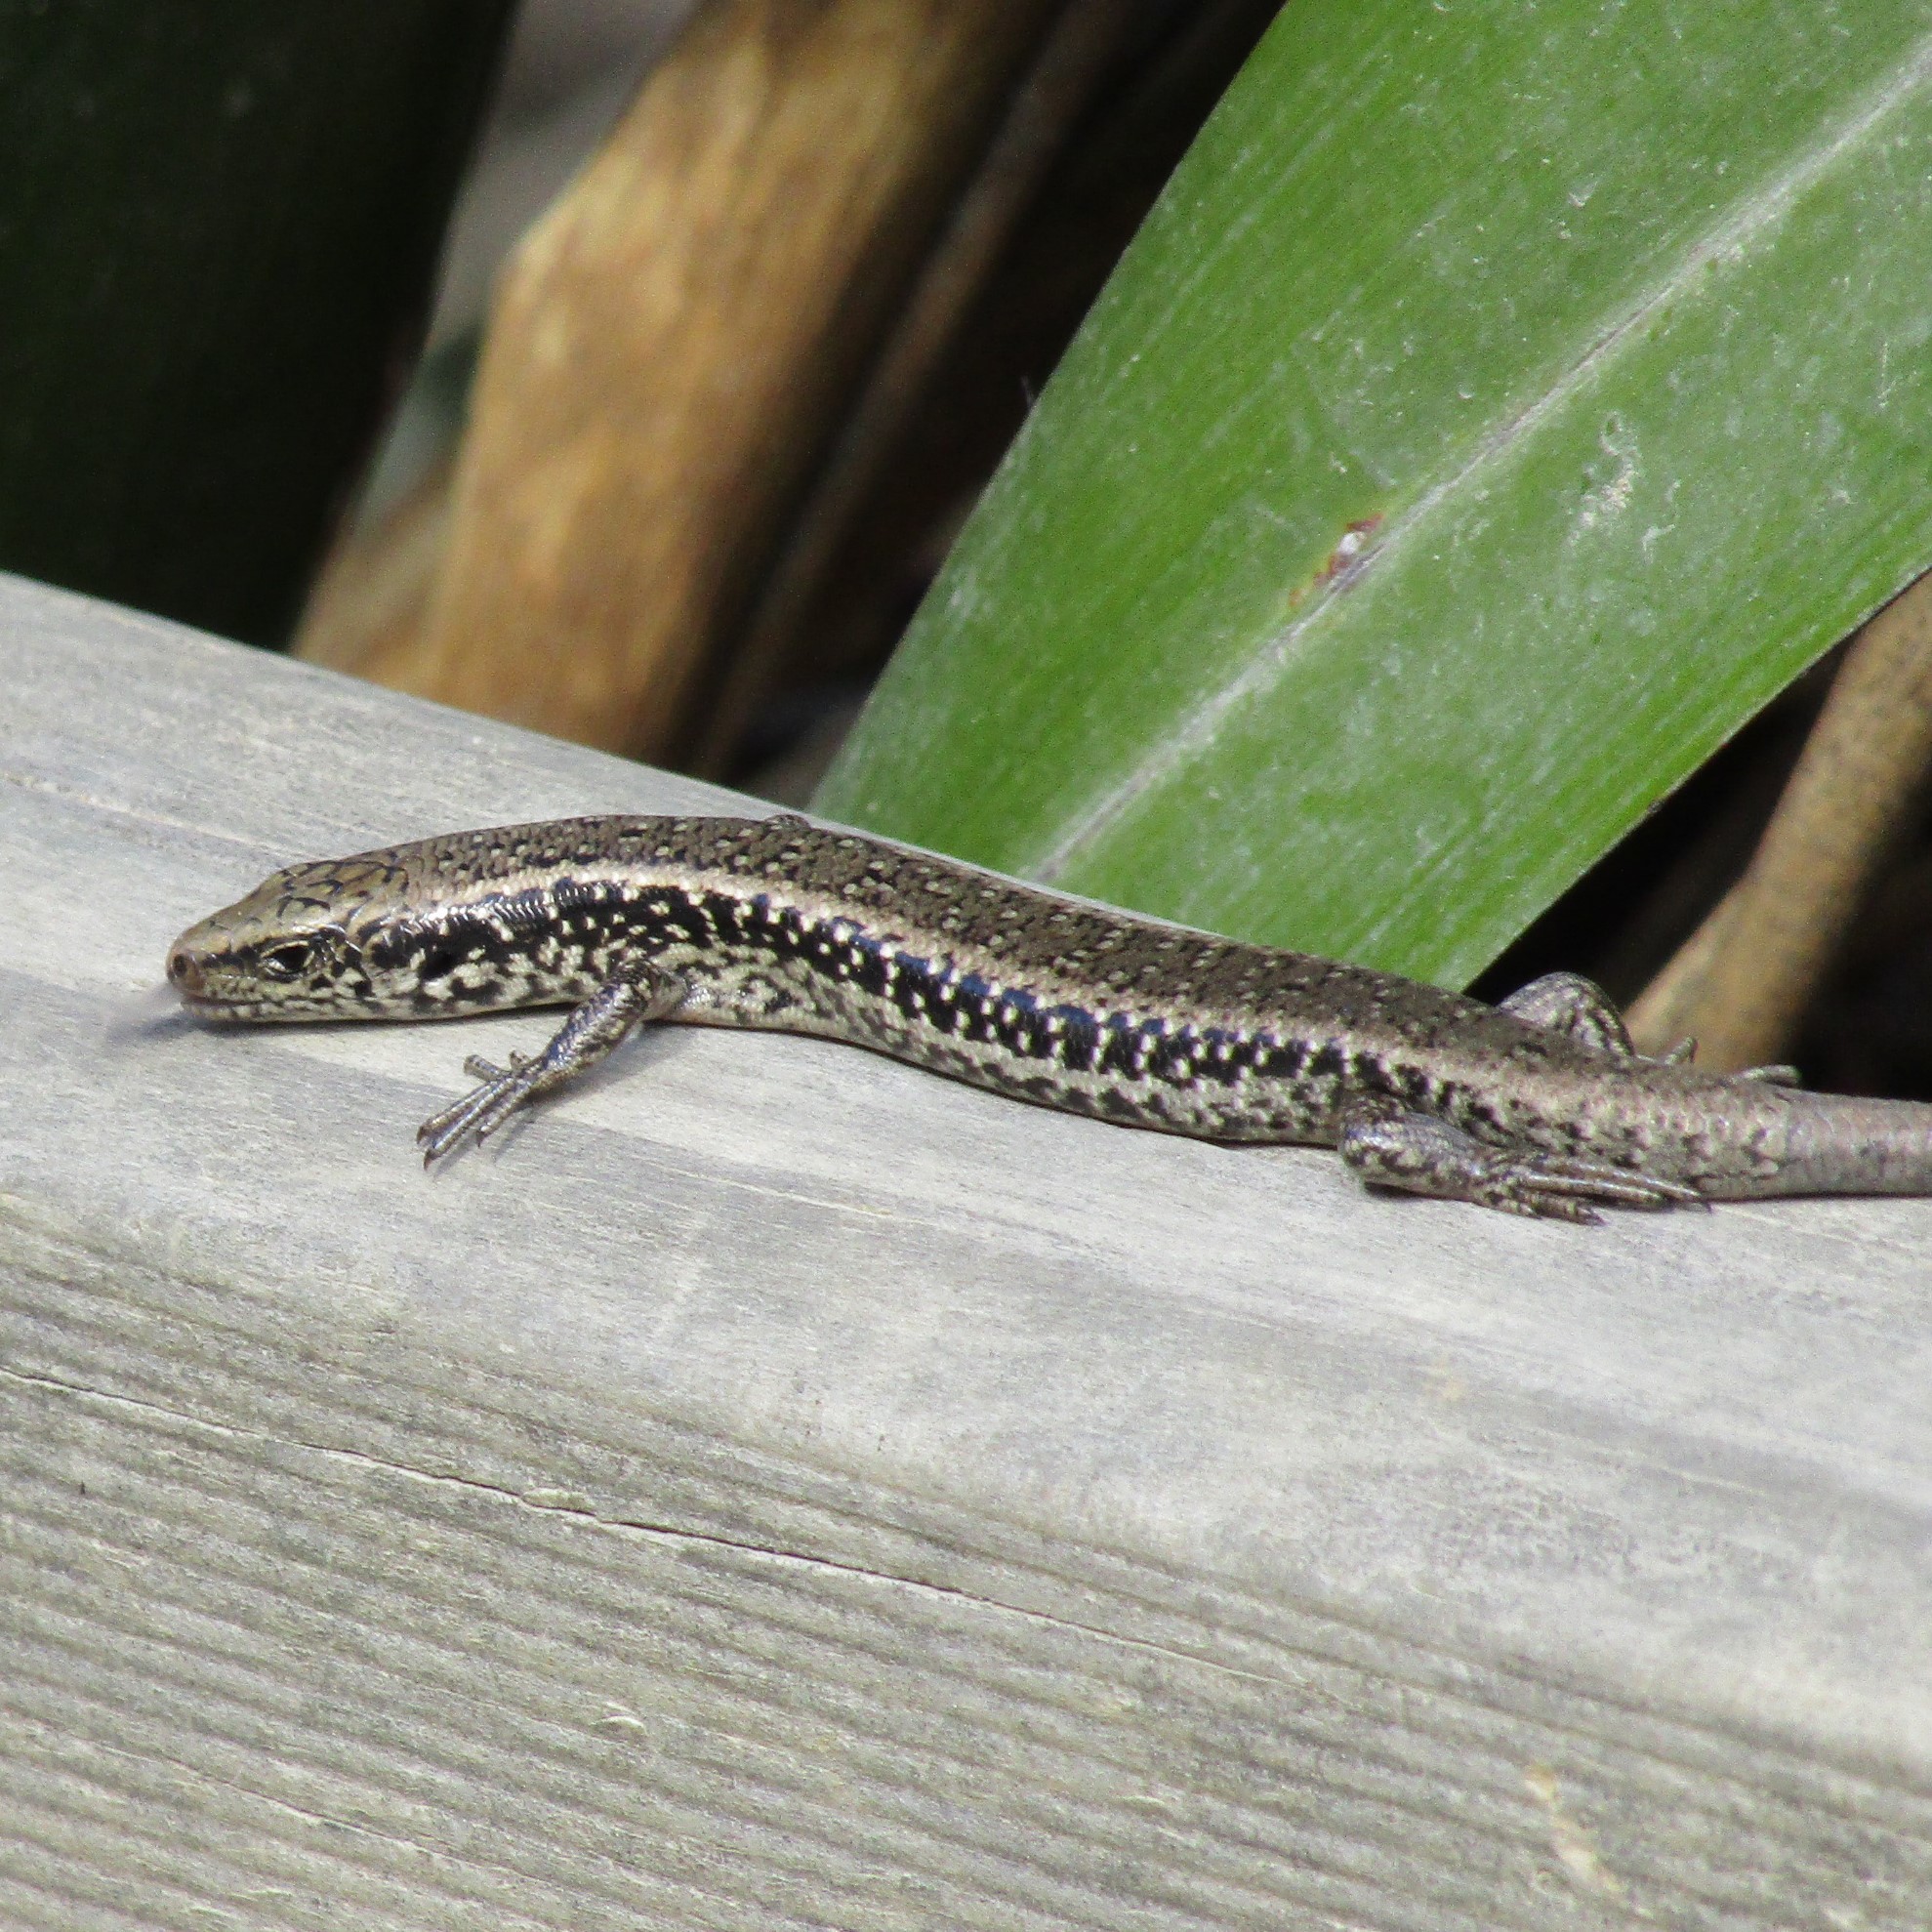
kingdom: Animalia
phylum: Chordata
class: Squamata
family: Scincidae
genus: Oligosoma
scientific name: Oligosoma kokowai
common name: Northern spotted skink
